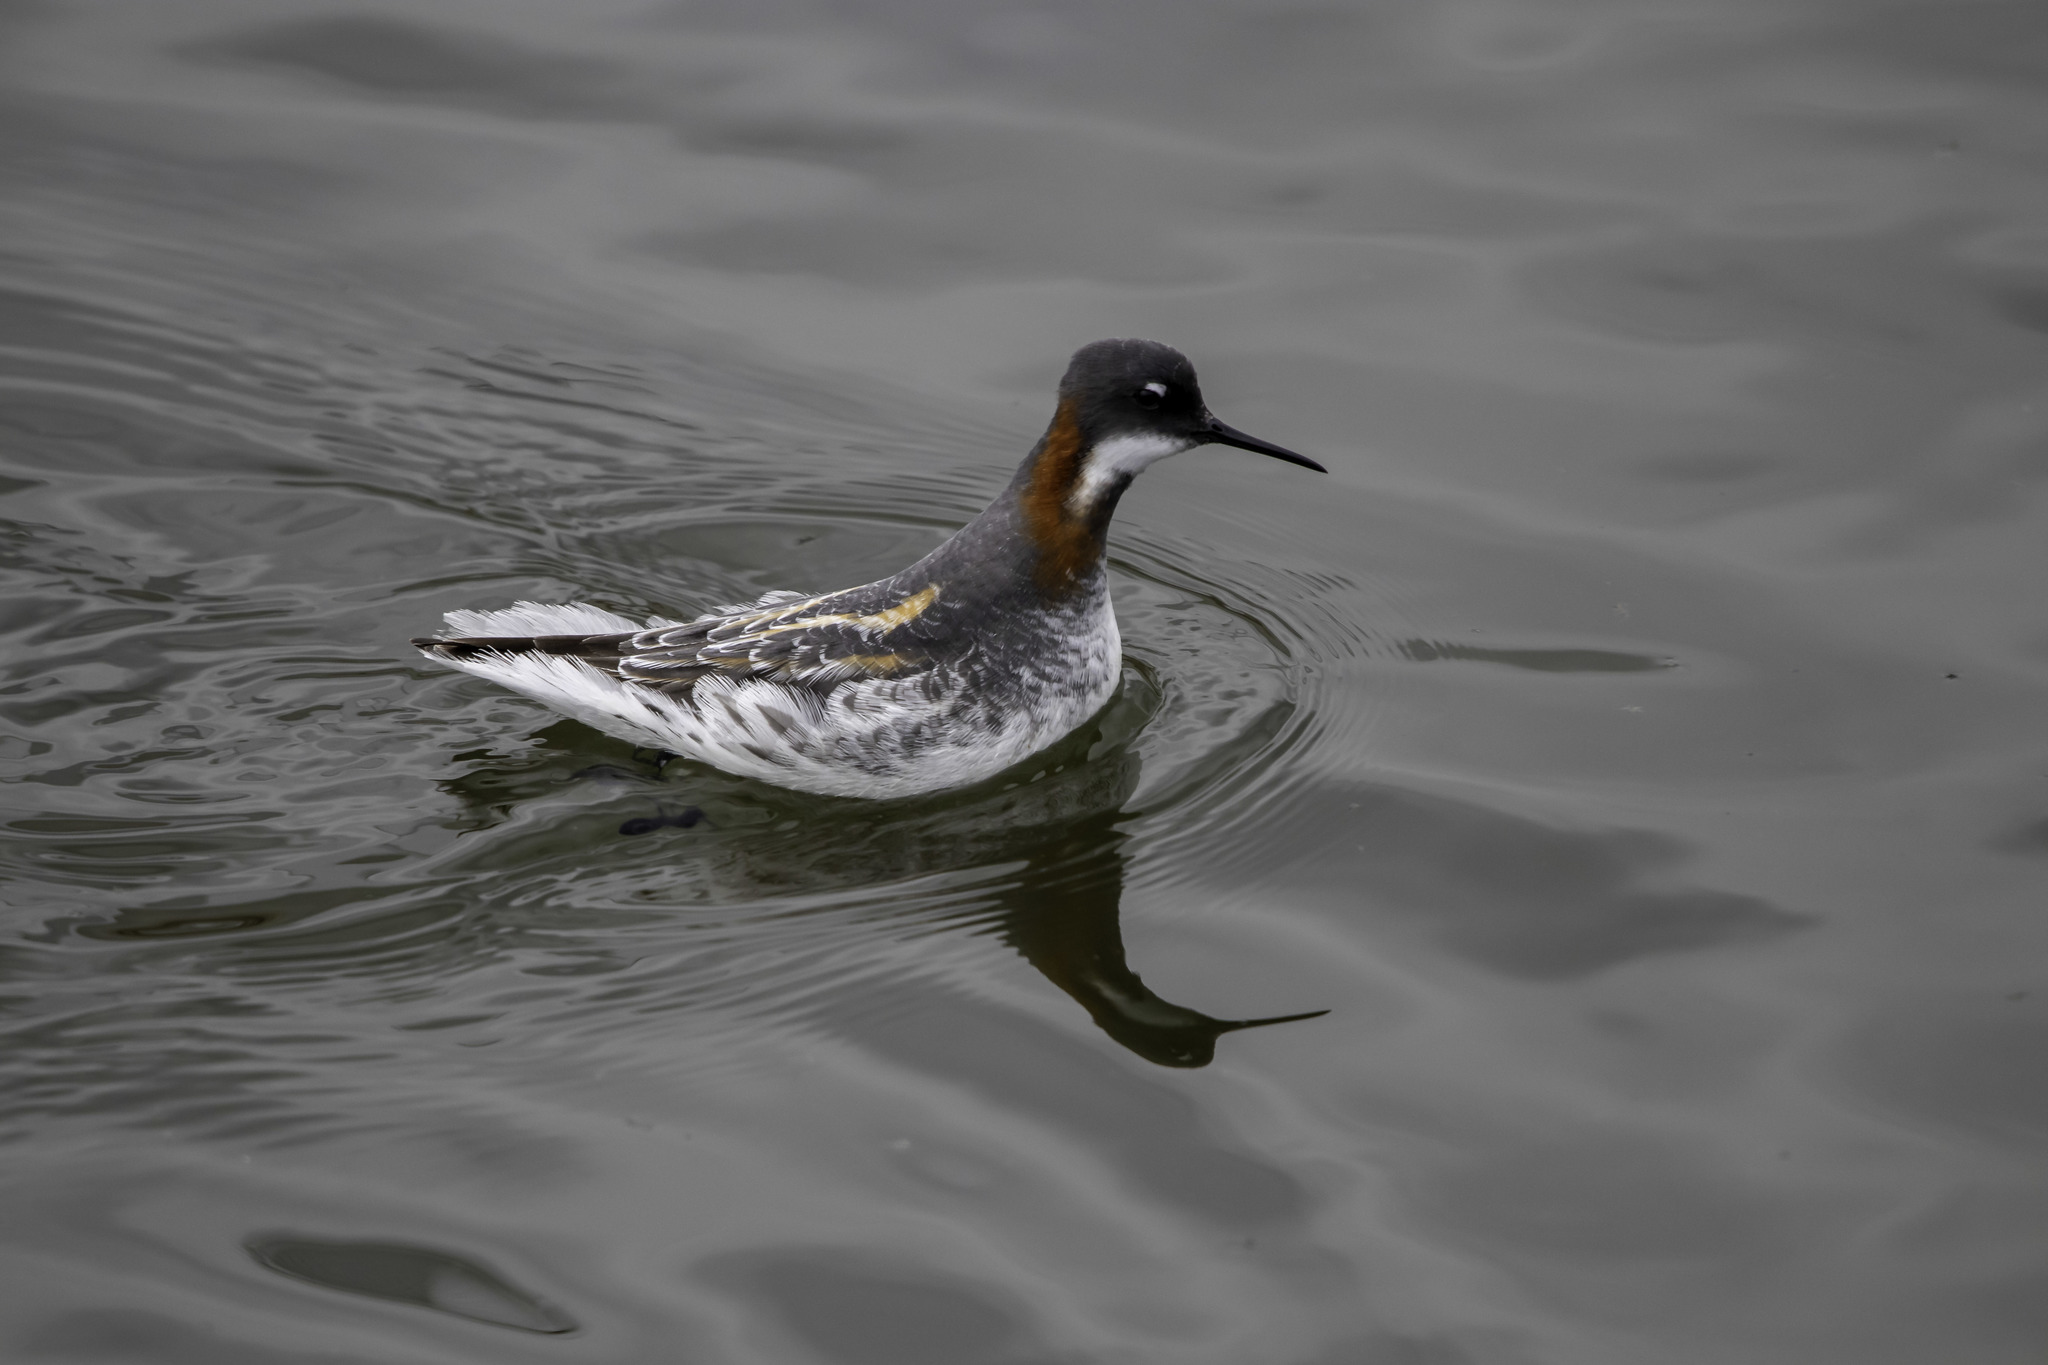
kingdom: Animalia
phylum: Chordata
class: Aves
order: Charadriiformes
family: Scolopacidae
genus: Phalaropus
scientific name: Phalaropus lobatus
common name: Red-necked phalarope
